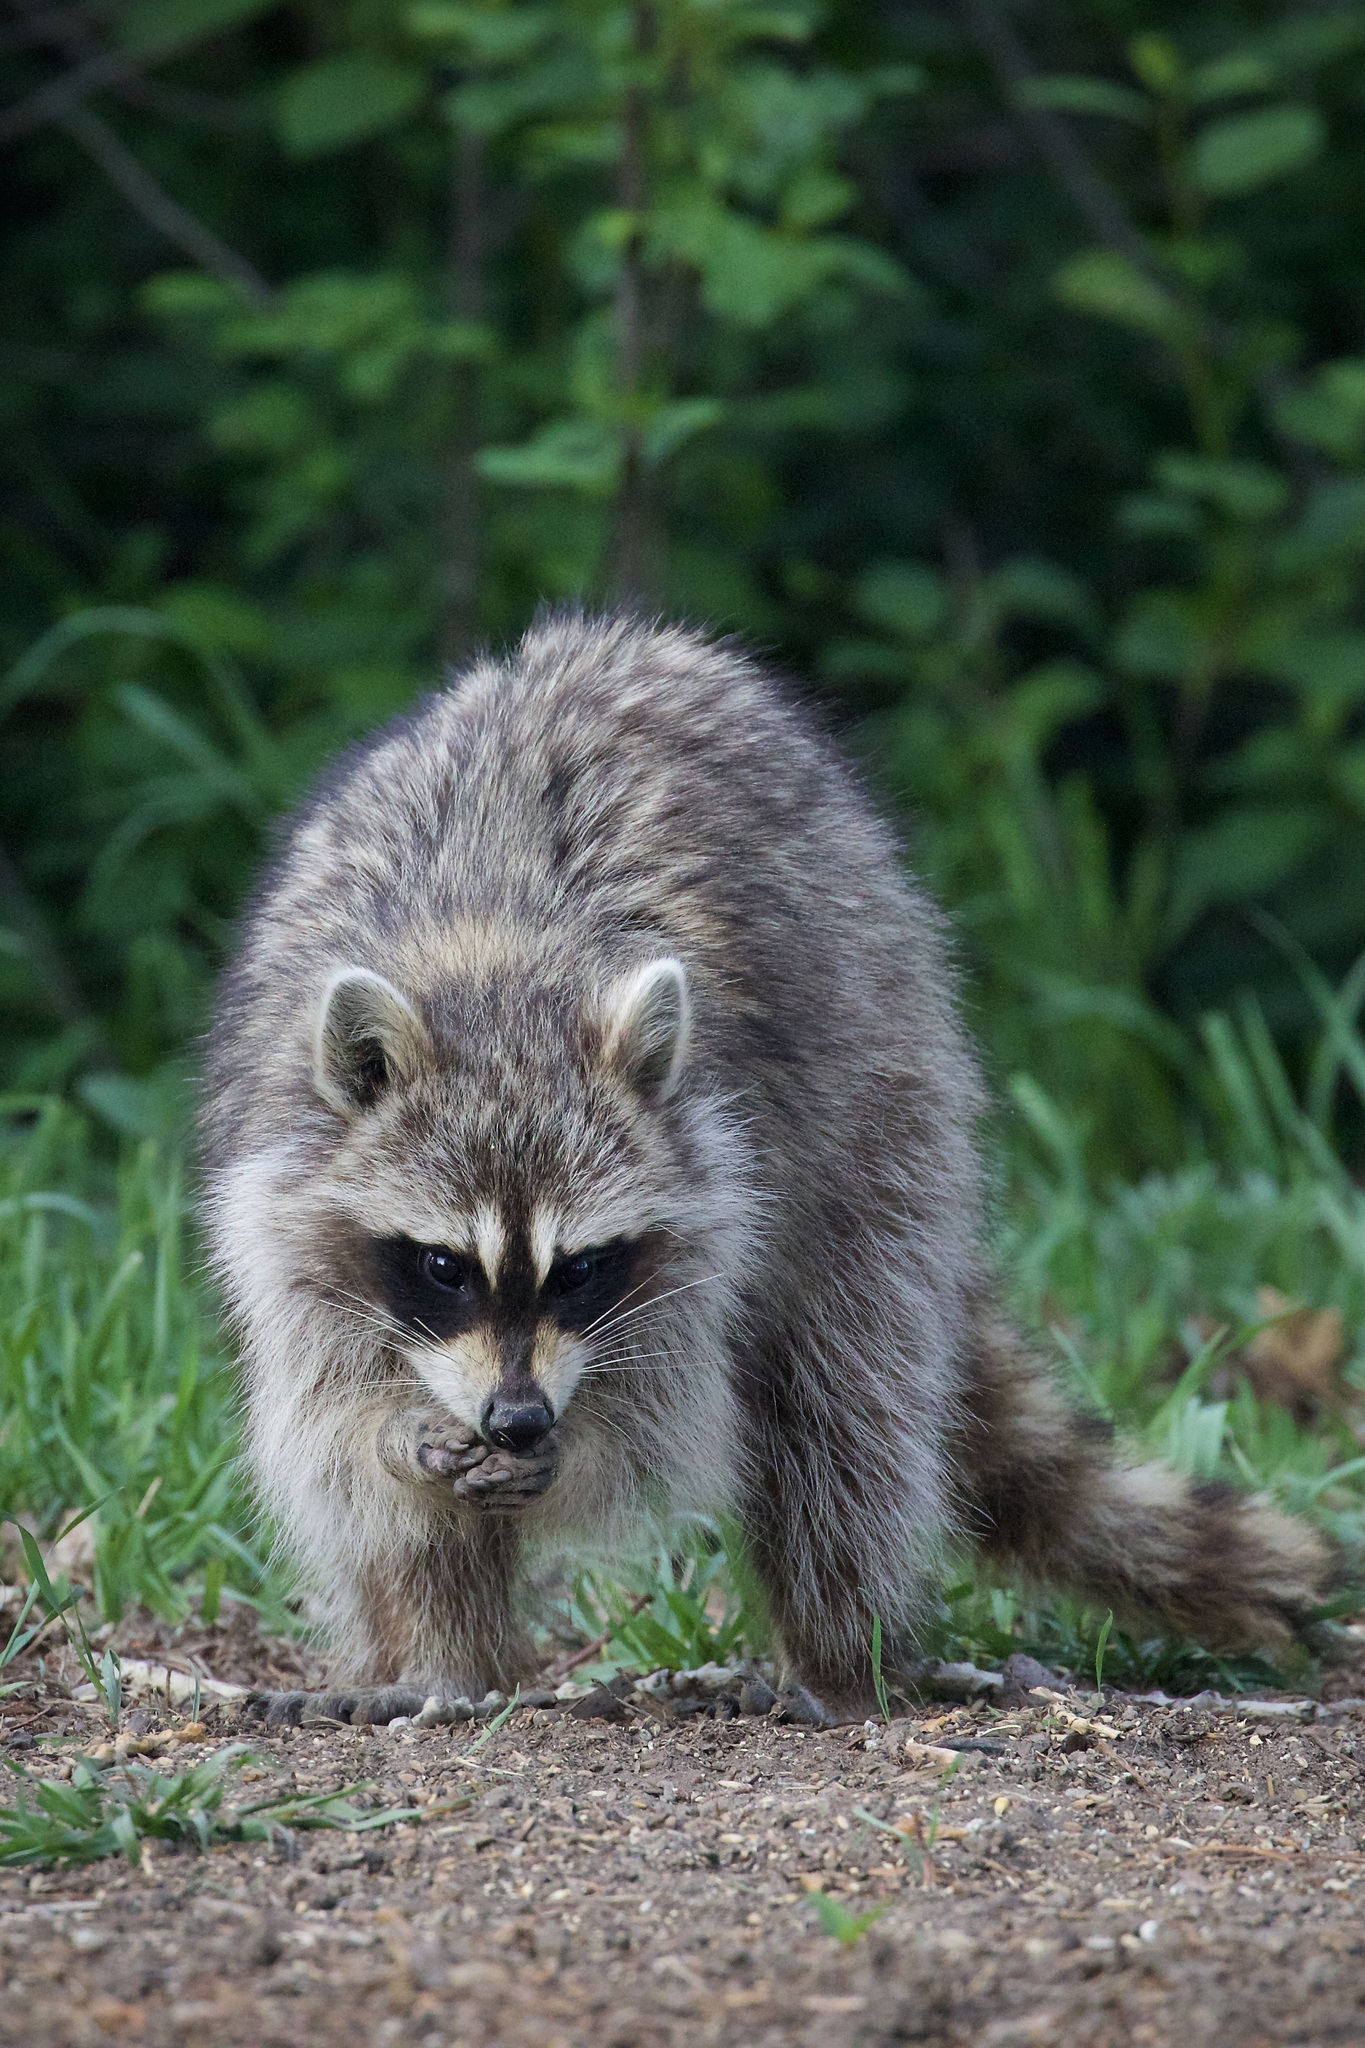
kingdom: Animalia
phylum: Chordata
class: Mammalia
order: Carnivora
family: Procyonidae
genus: Procyon
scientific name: Procyon lotor
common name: Raccoon
